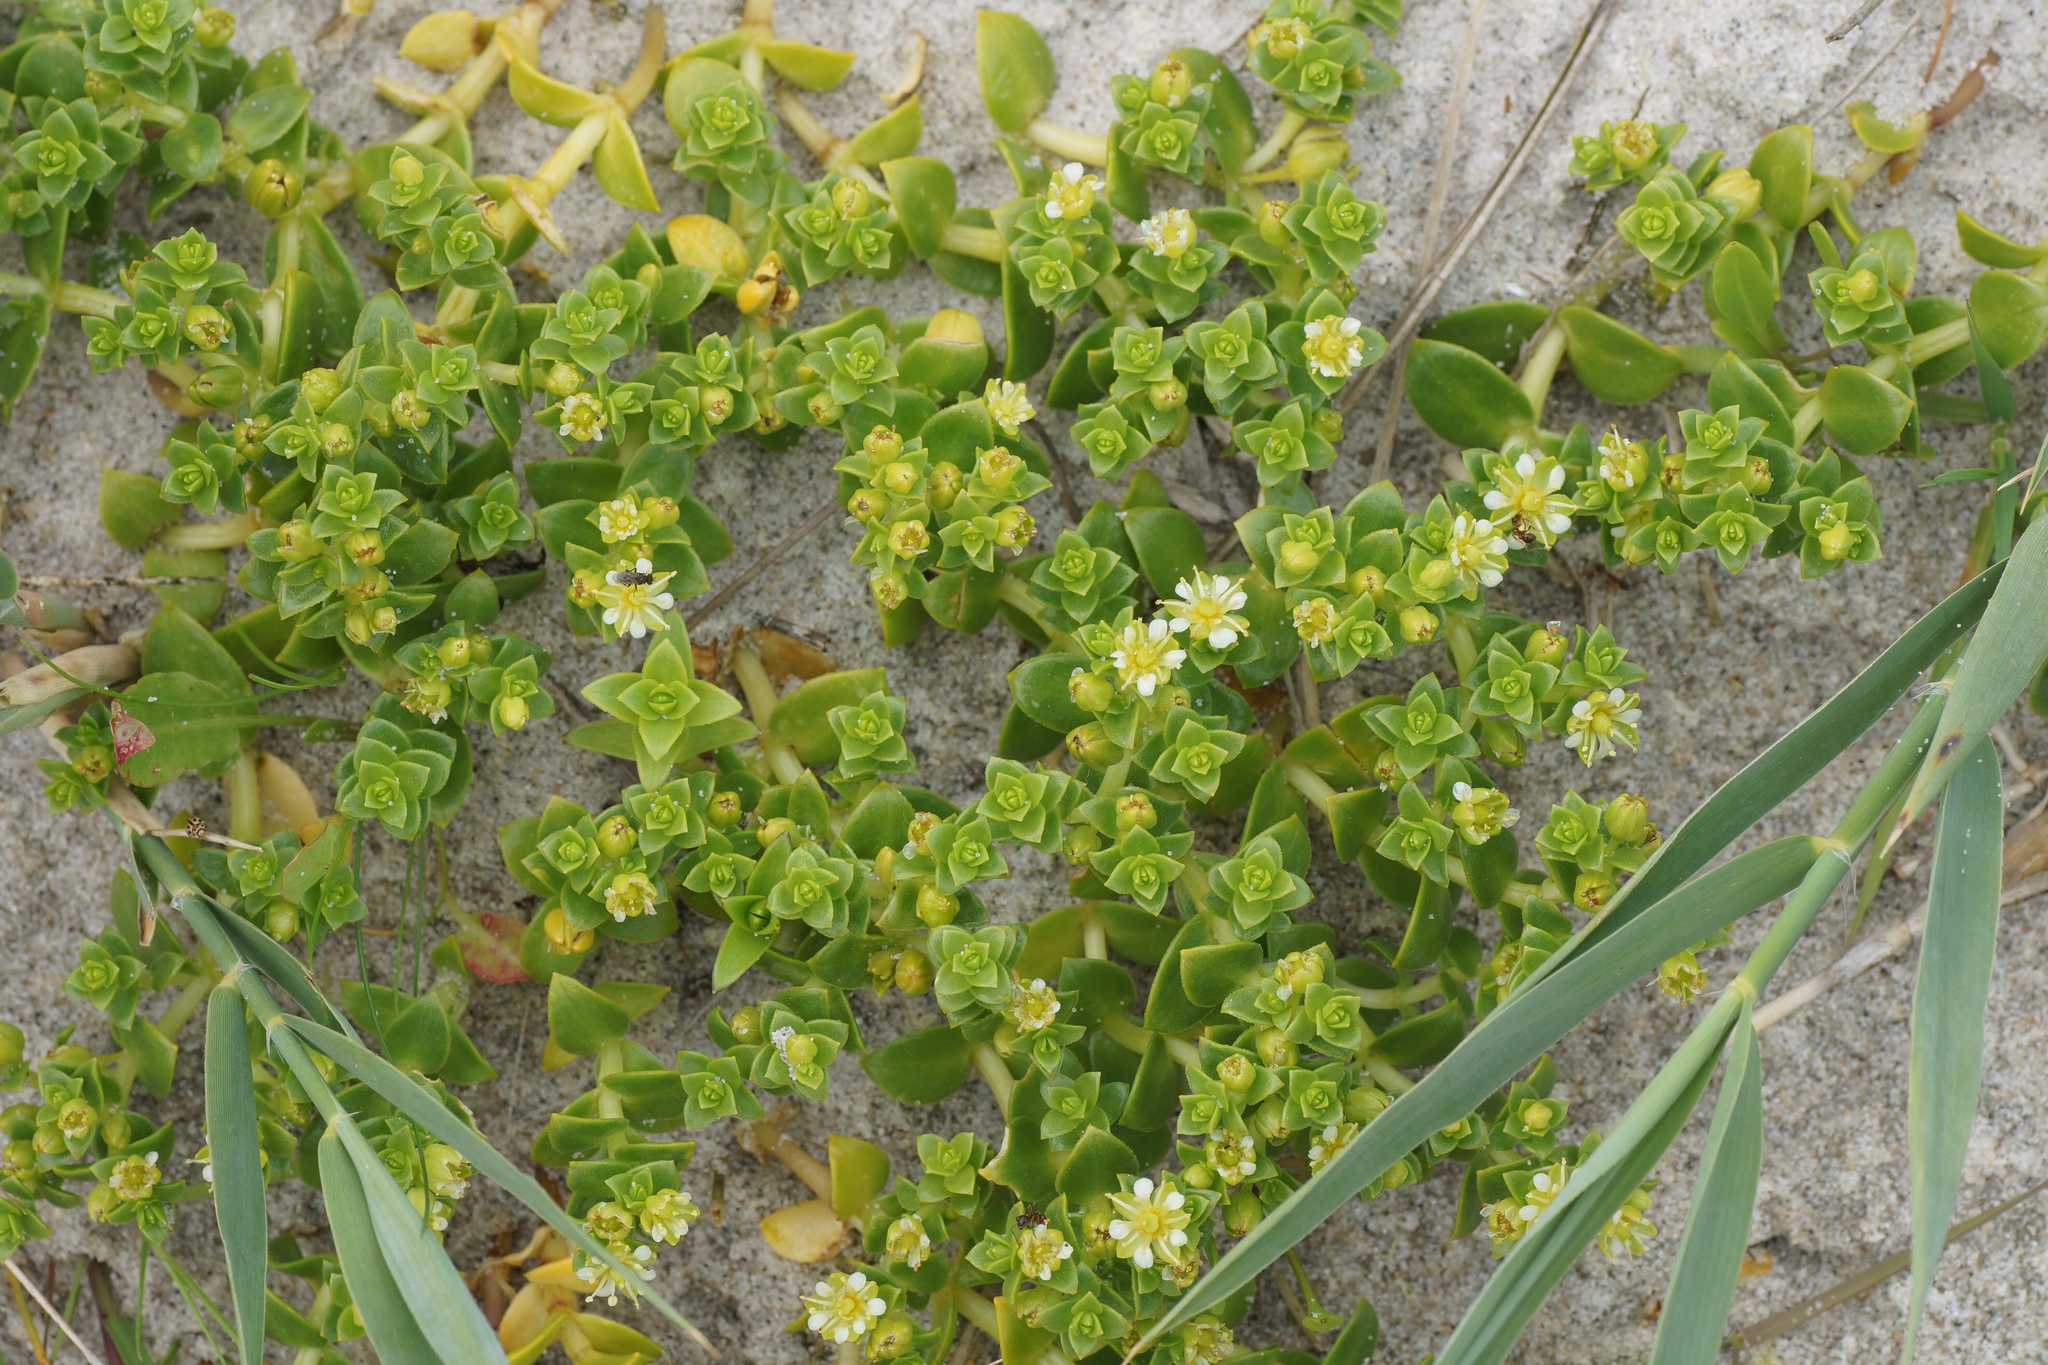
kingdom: Plantae
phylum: Tracheophyta
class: Magnoliopsida
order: Caryophyllales
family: Caryophyllaceae
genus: Honckenya
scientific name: Honckenya peploides
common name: Sea sandwort
